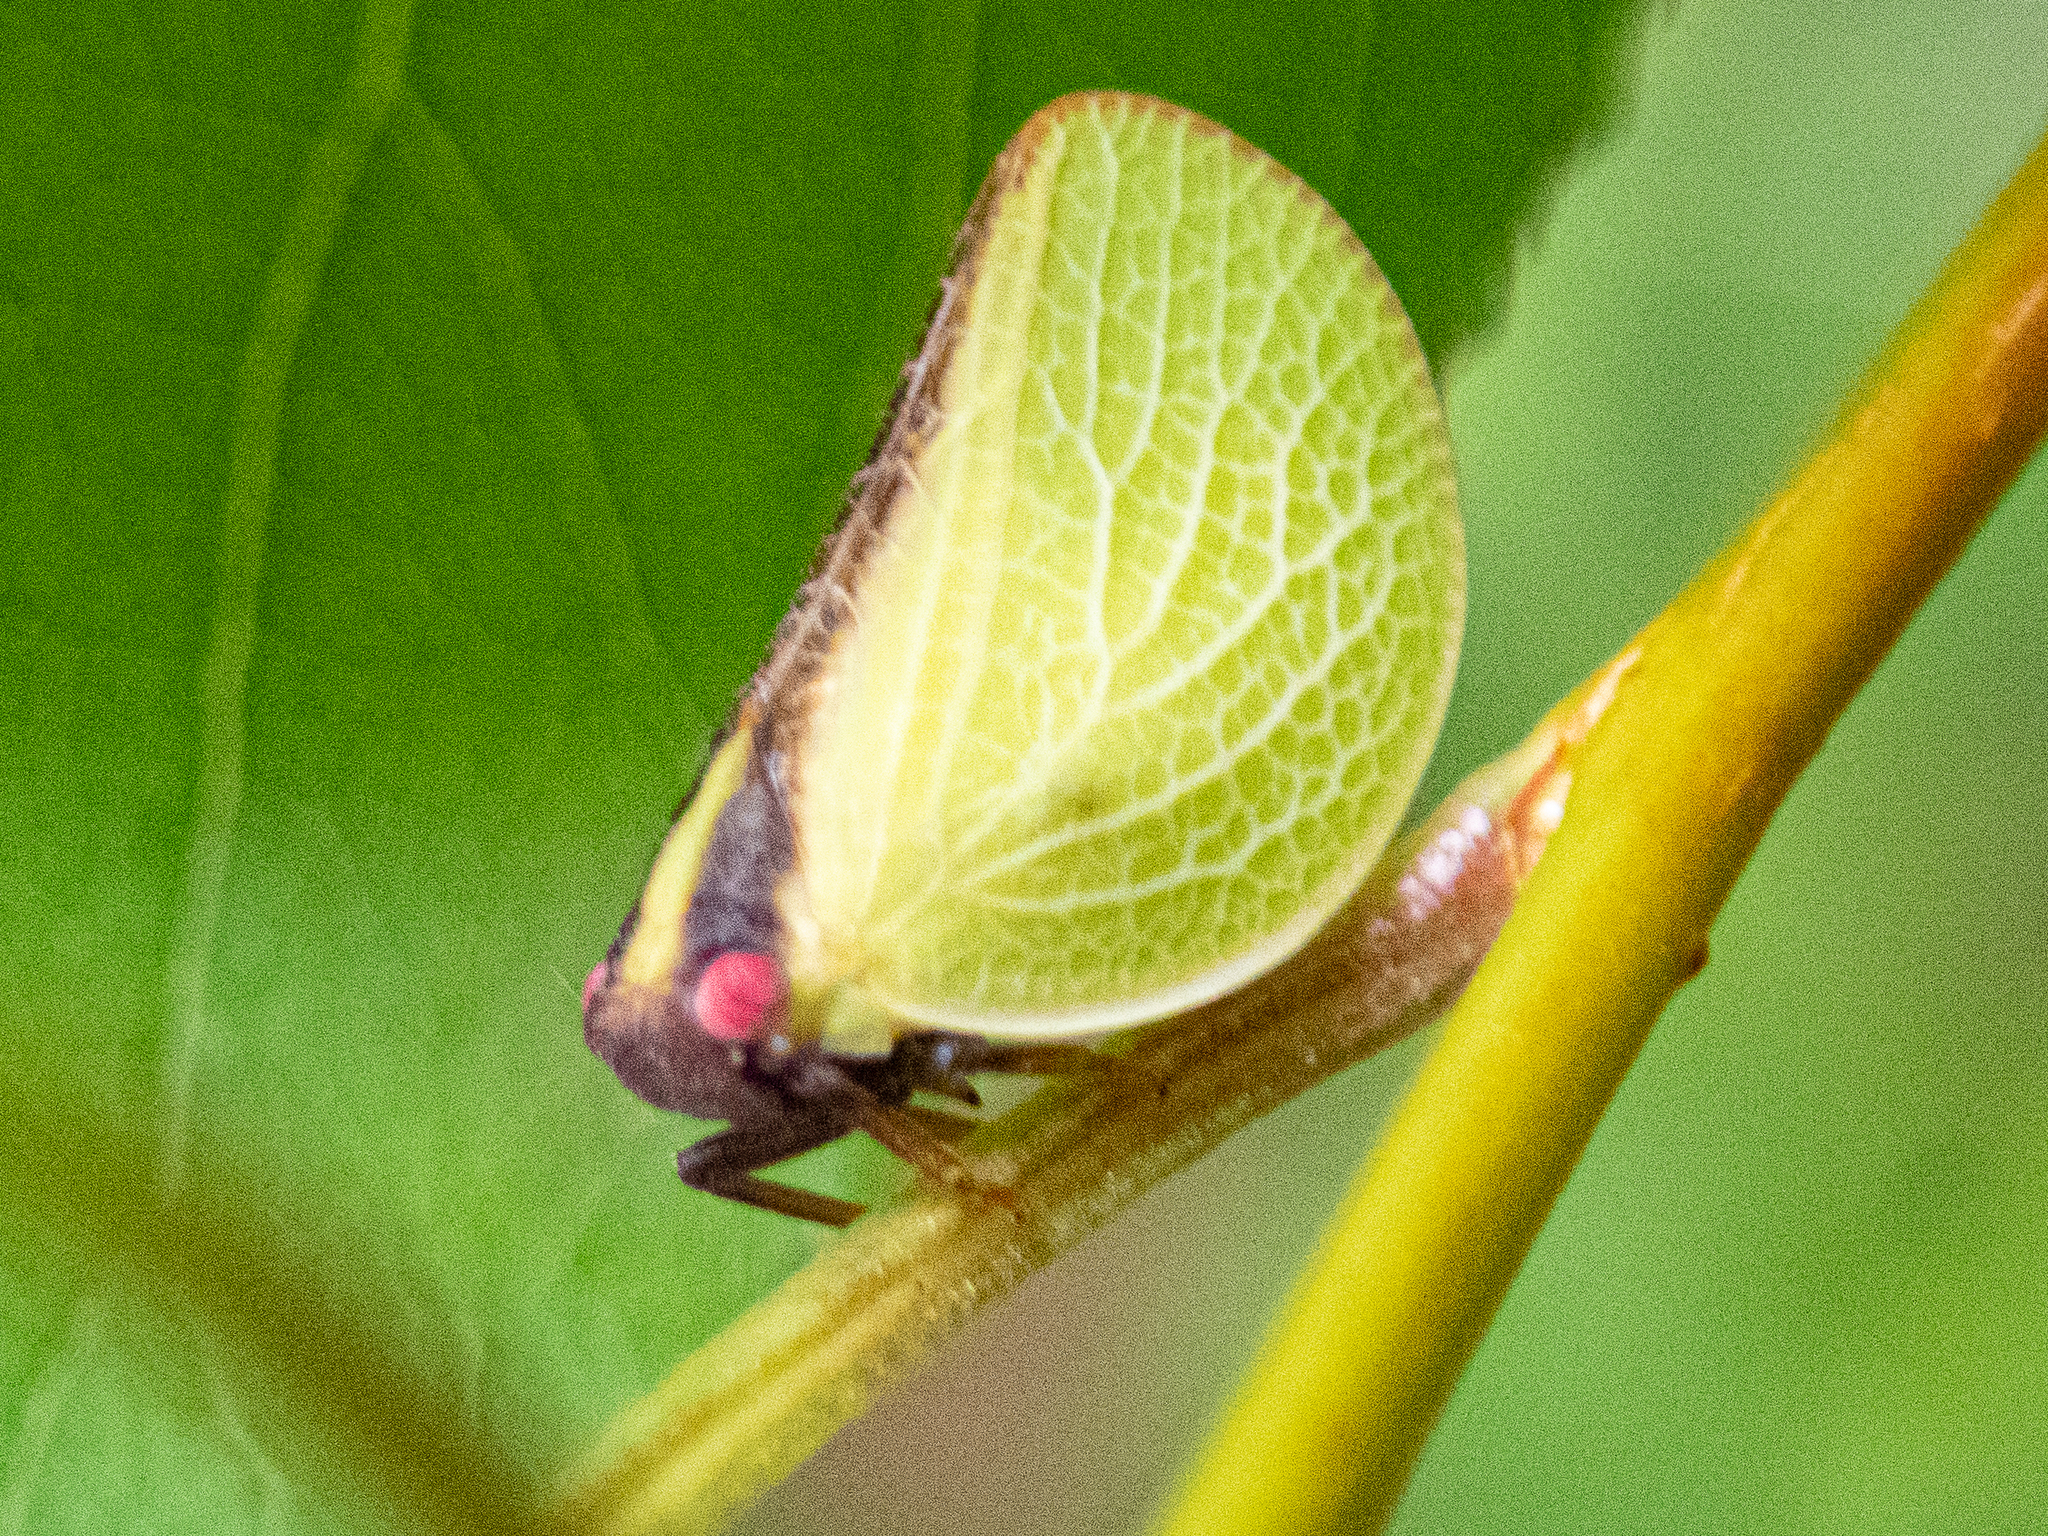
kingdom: Animalia
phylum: Arthropoda
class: Insecta
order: Hemiptera
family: Acanaloniidae
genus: Acanalonia
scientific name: Acanalonia bivittata
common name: Two-striped planthopper
